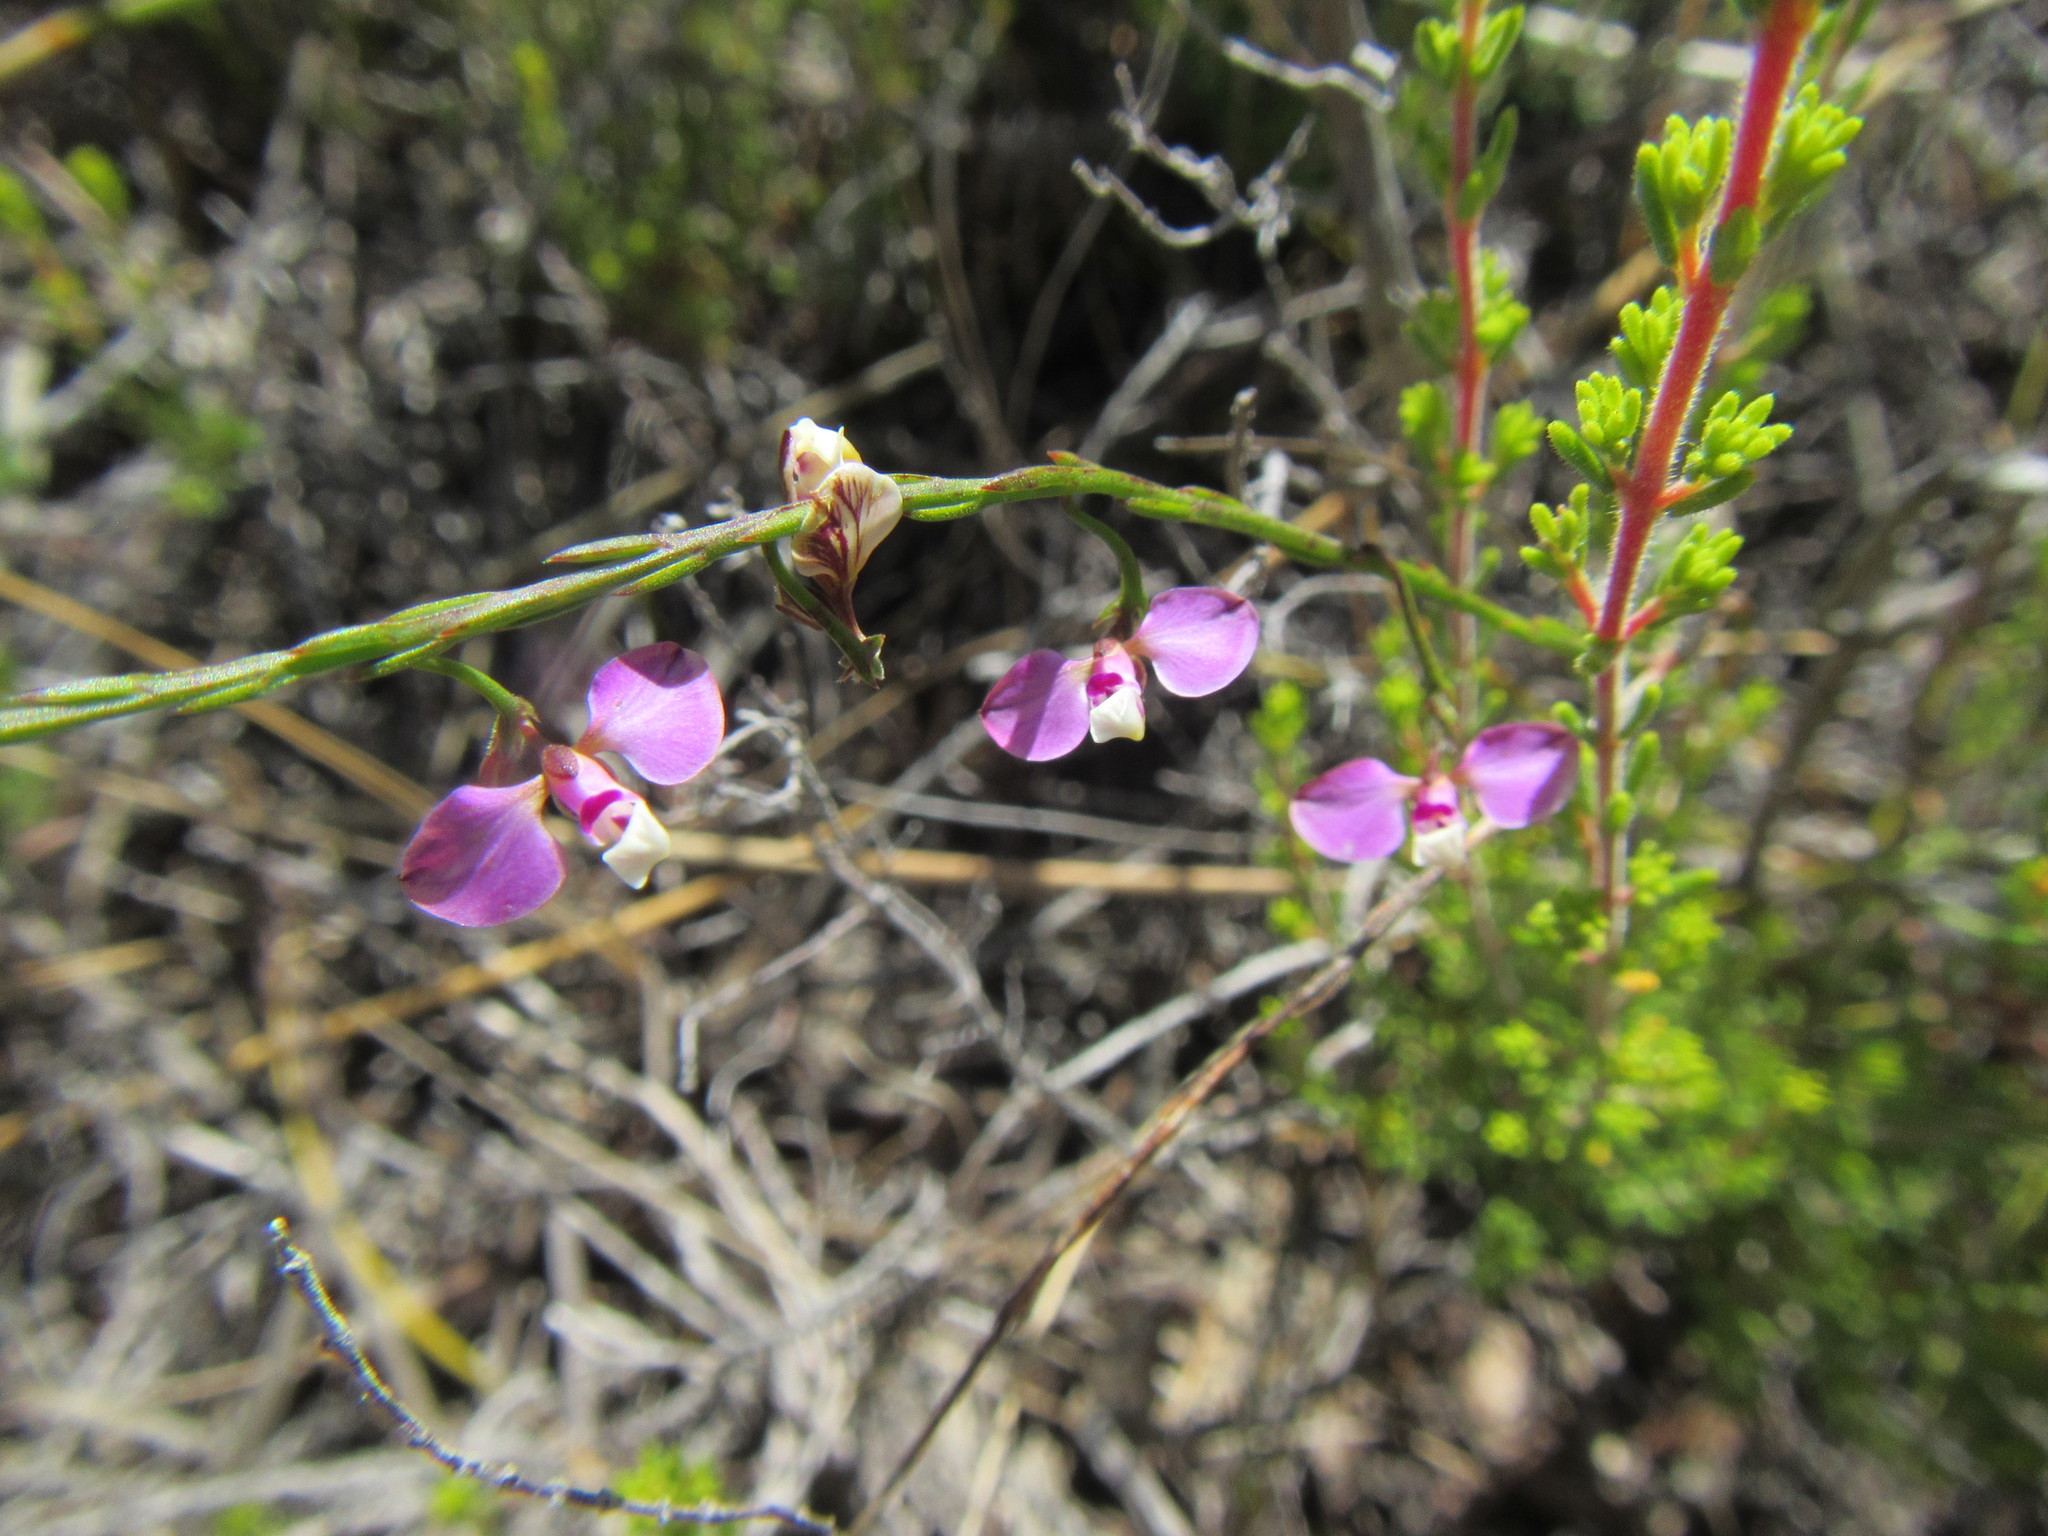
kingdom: Plantae
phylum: Tracheophyta
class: Magnoliopsida
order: Fabales
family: Polygalaceae
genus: Polygala
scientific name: Polygala lehmanniana
